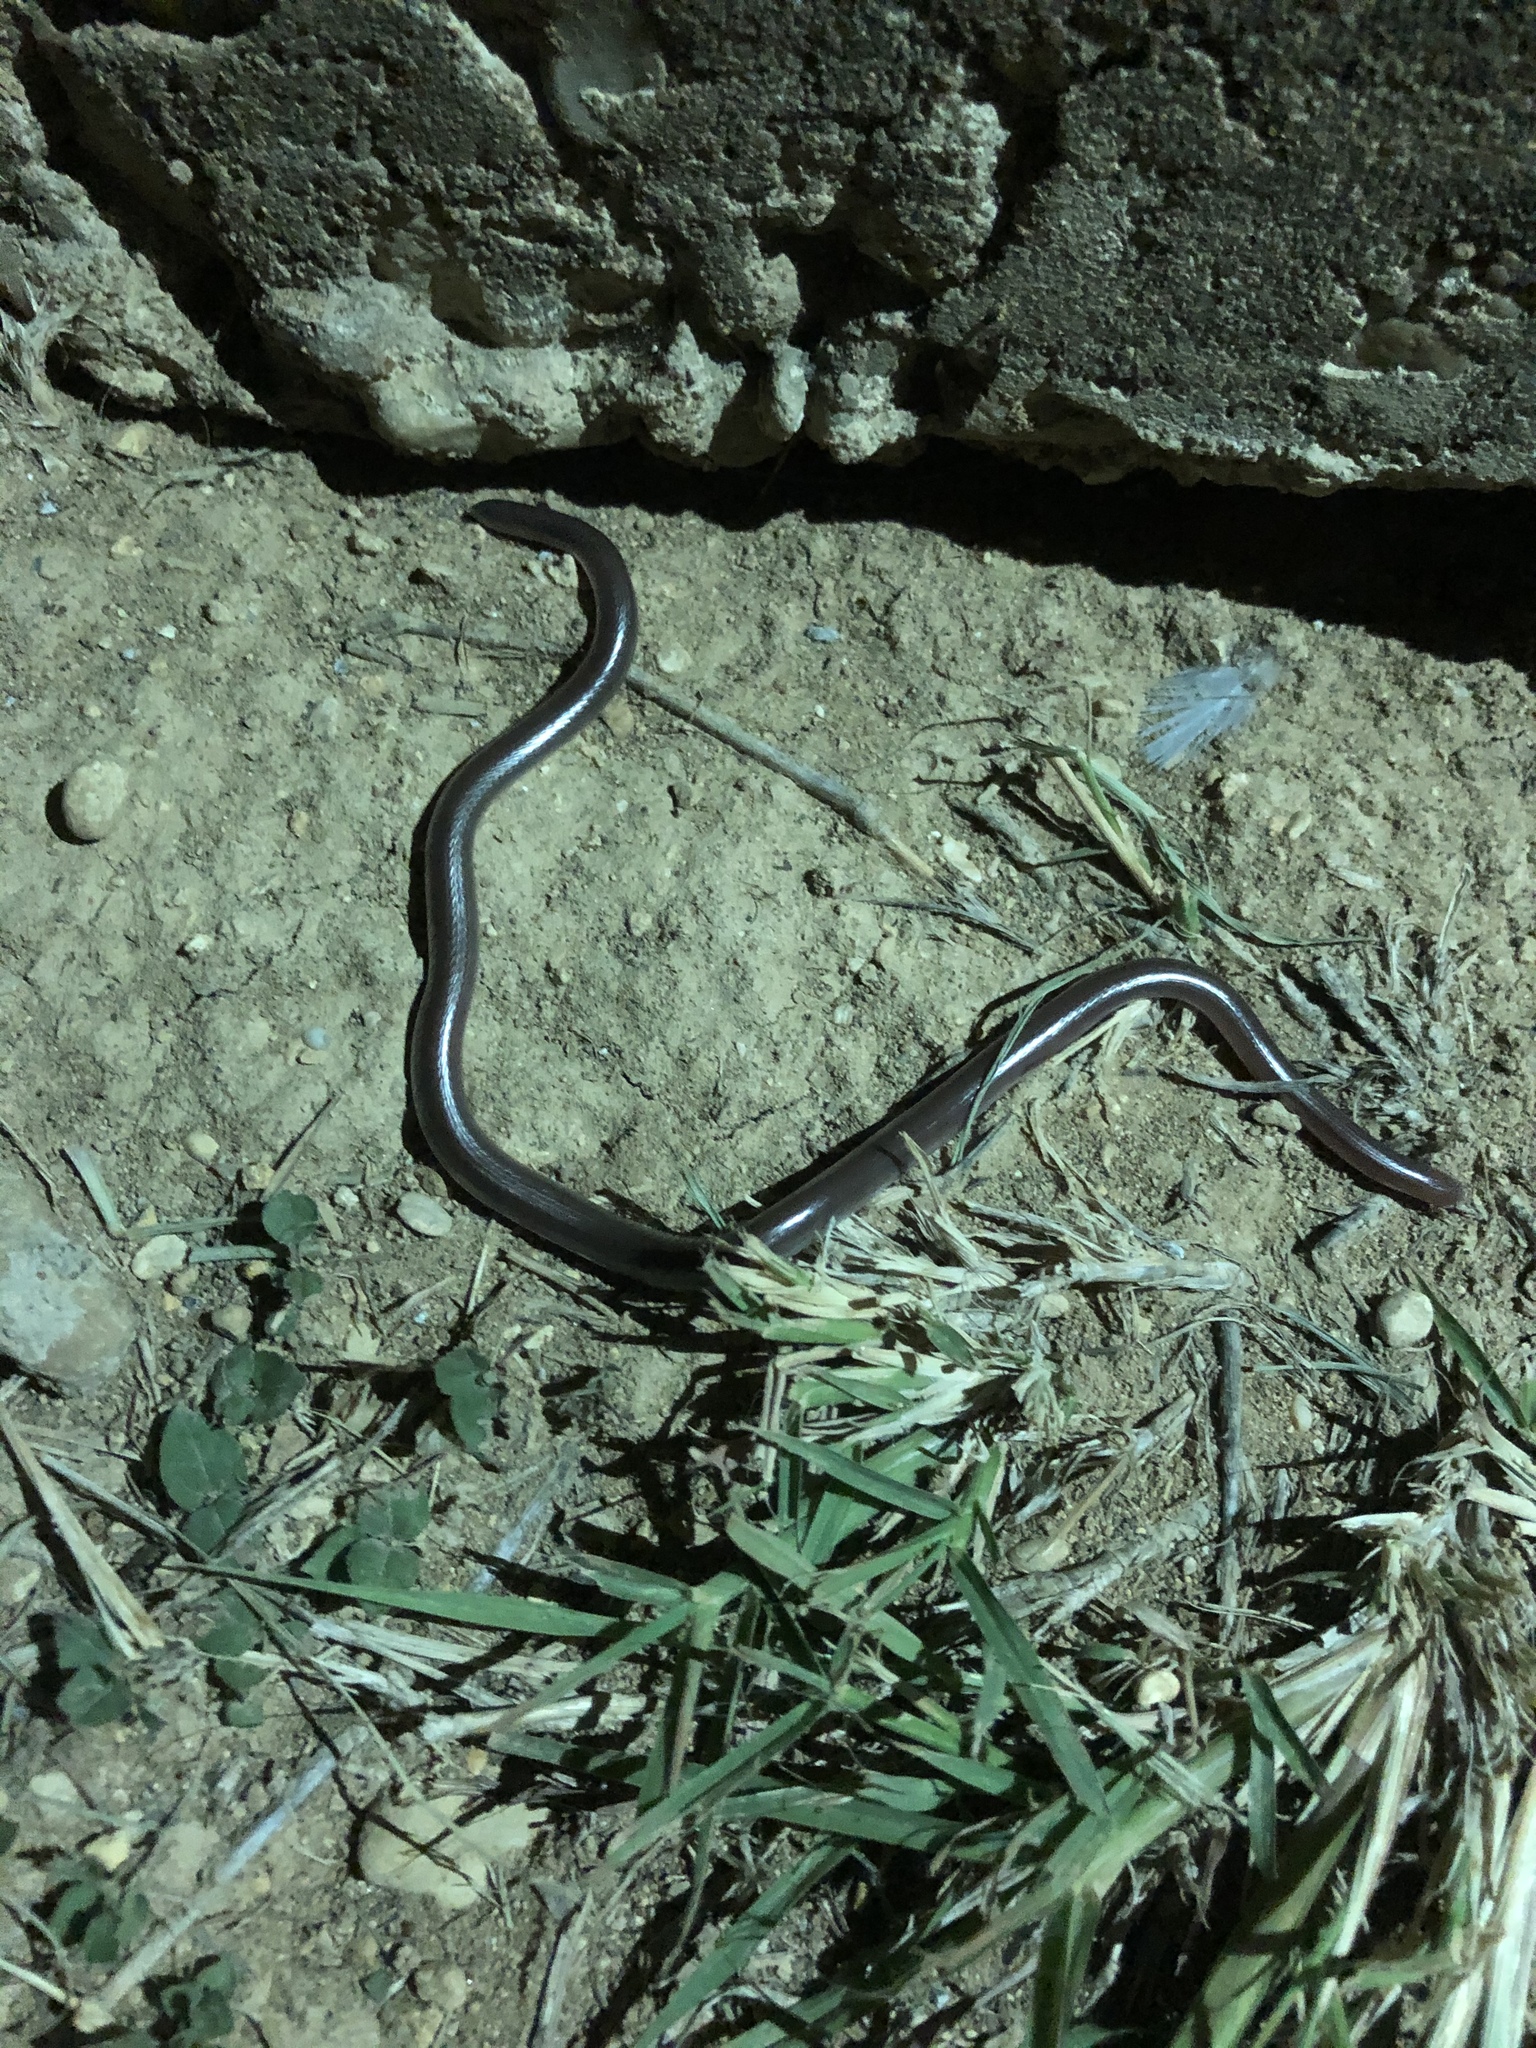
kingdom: Animalia
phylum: Chordata
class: Squamata
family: Leptotyphlopidae
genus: Rena
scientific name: Rena dulcis
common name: Texas blind snake
